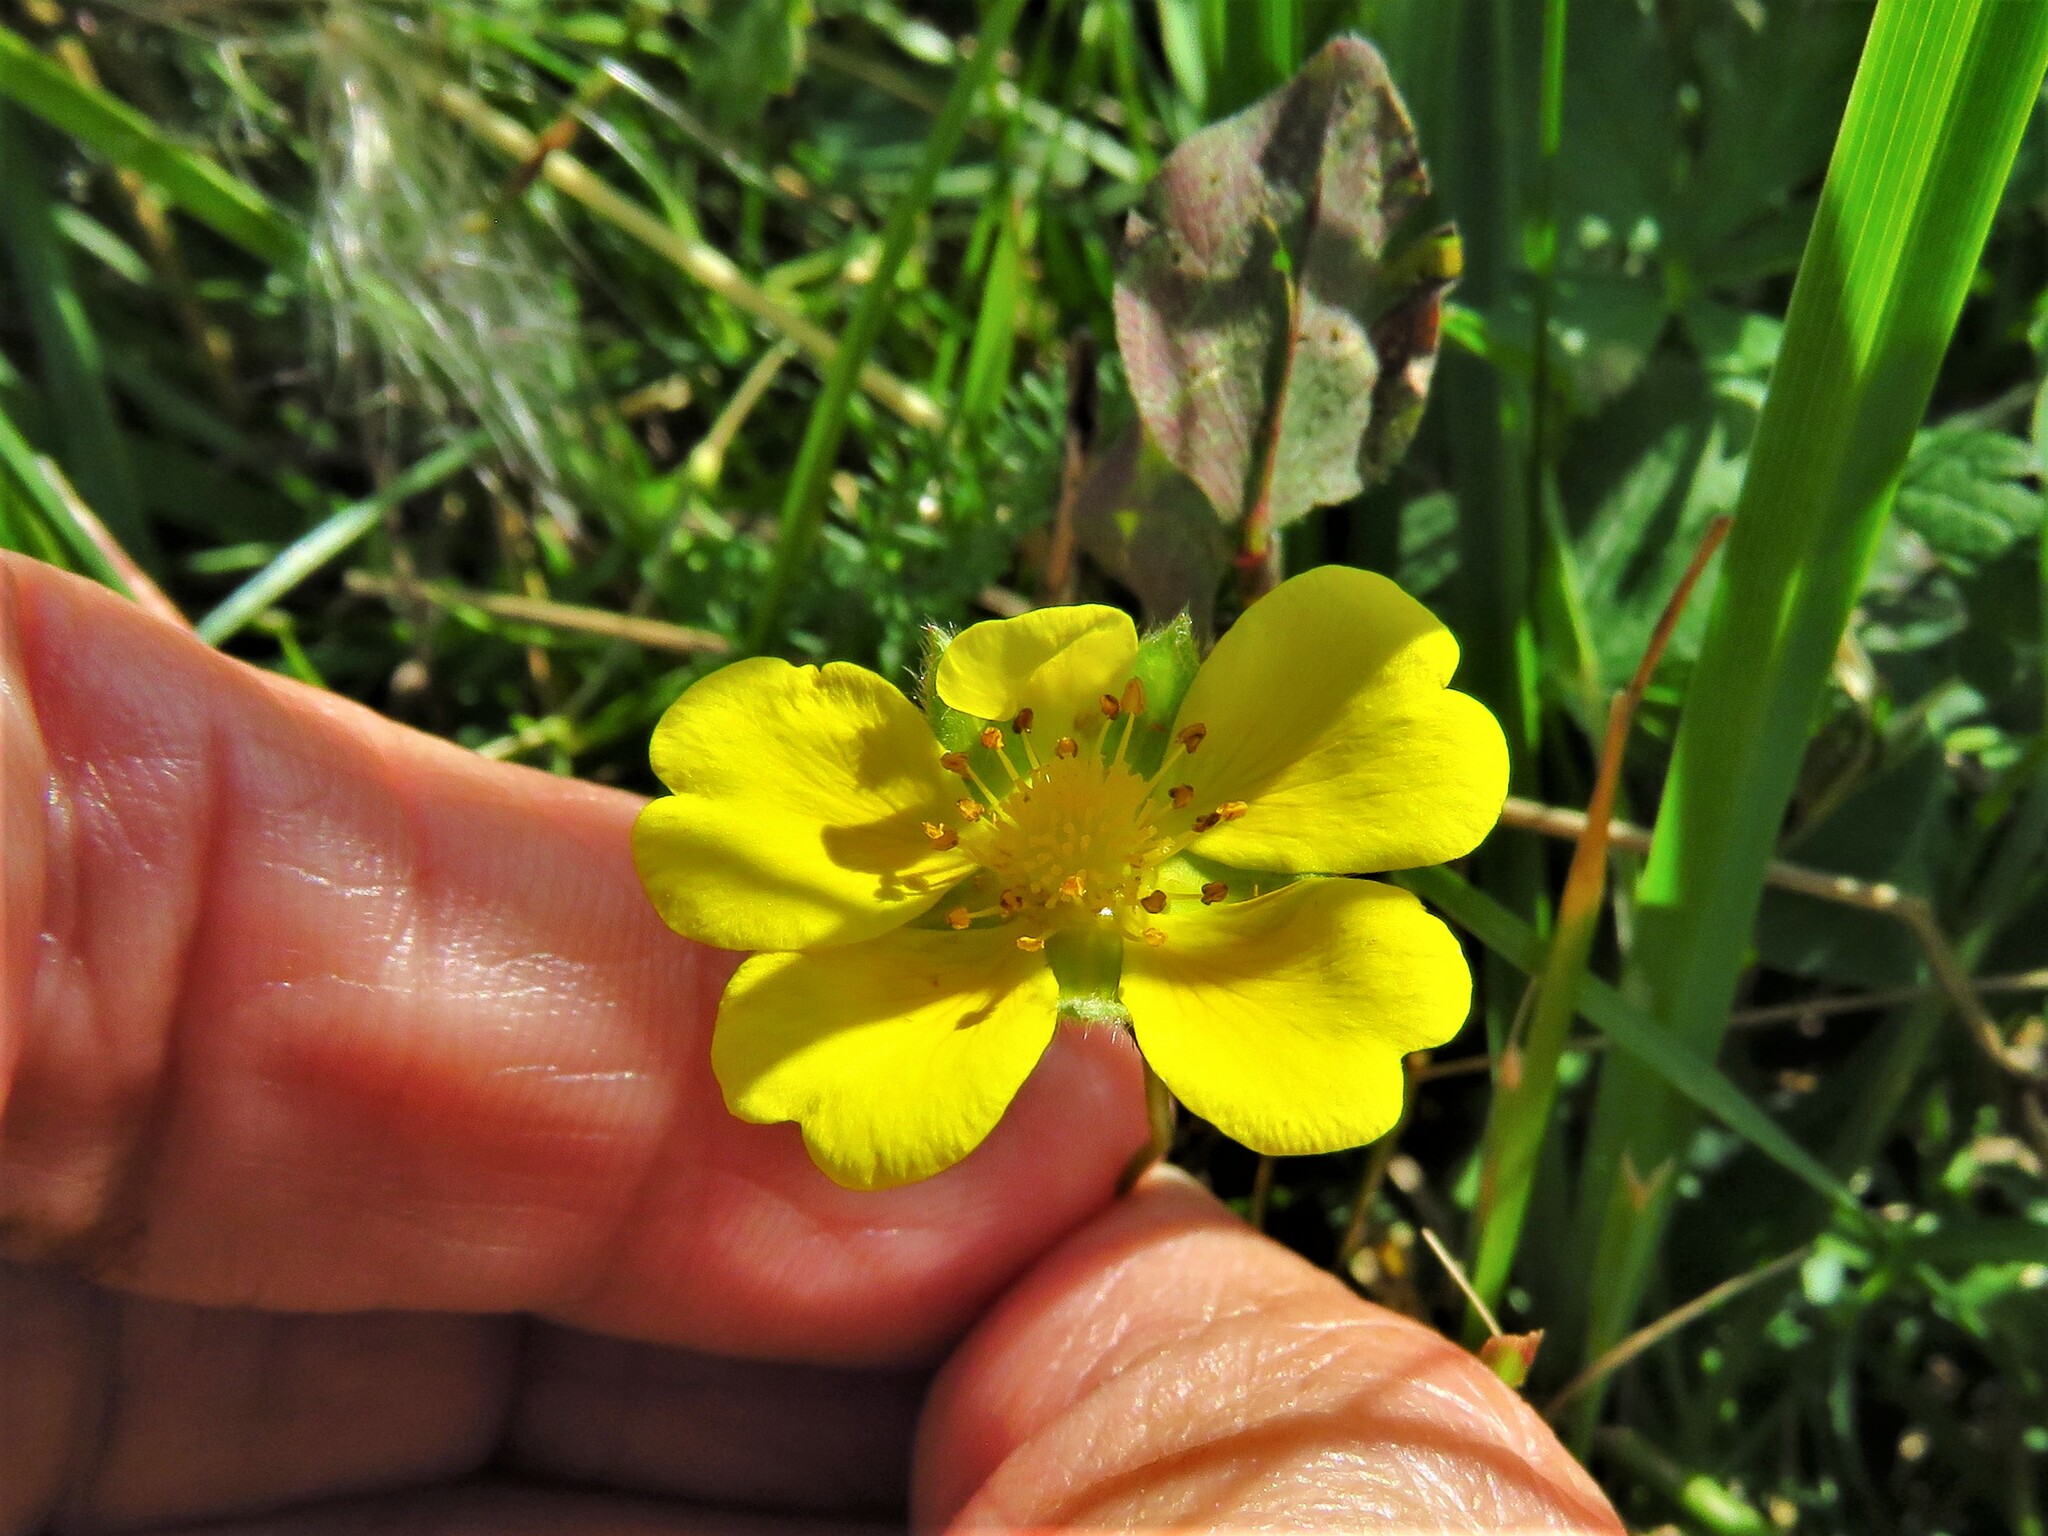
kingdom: Plantae
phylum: Tracheophyta
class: Magnoliopsida
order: Rosales
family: Rosaceae
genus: Potentilla
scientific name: Potentilla reptans
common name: Creeping cinquefoil
